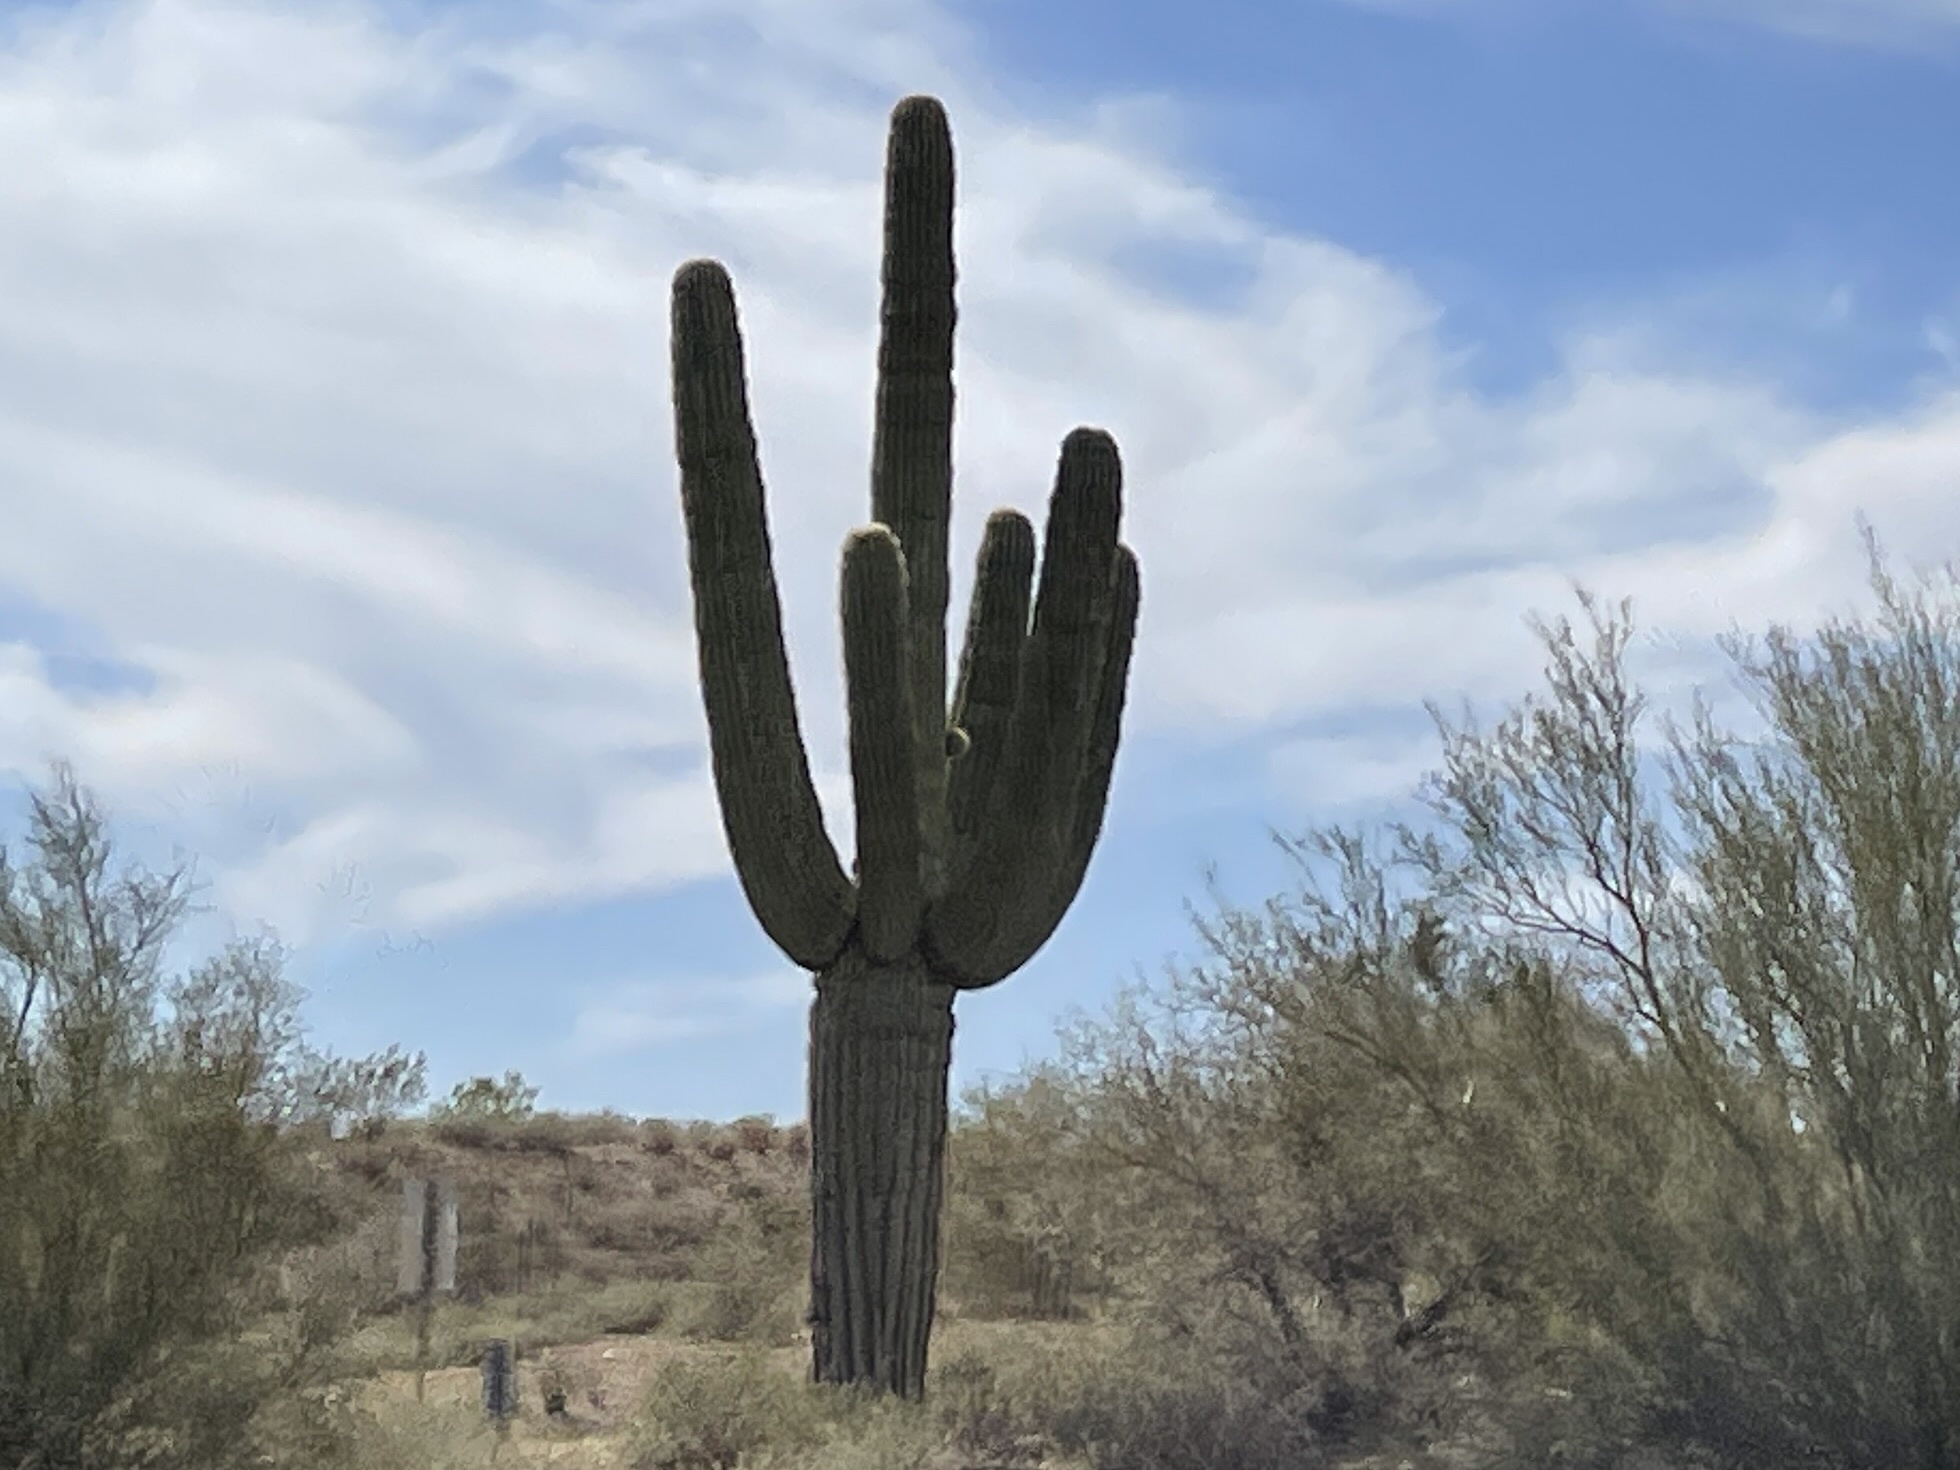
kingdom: Plantae
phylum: Tracheophyta
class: Magnoliopsida
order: Caryophyllales
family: Cactaceae
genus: Carnegiea
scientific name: Carnegiea gigantea
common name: Saguaro
